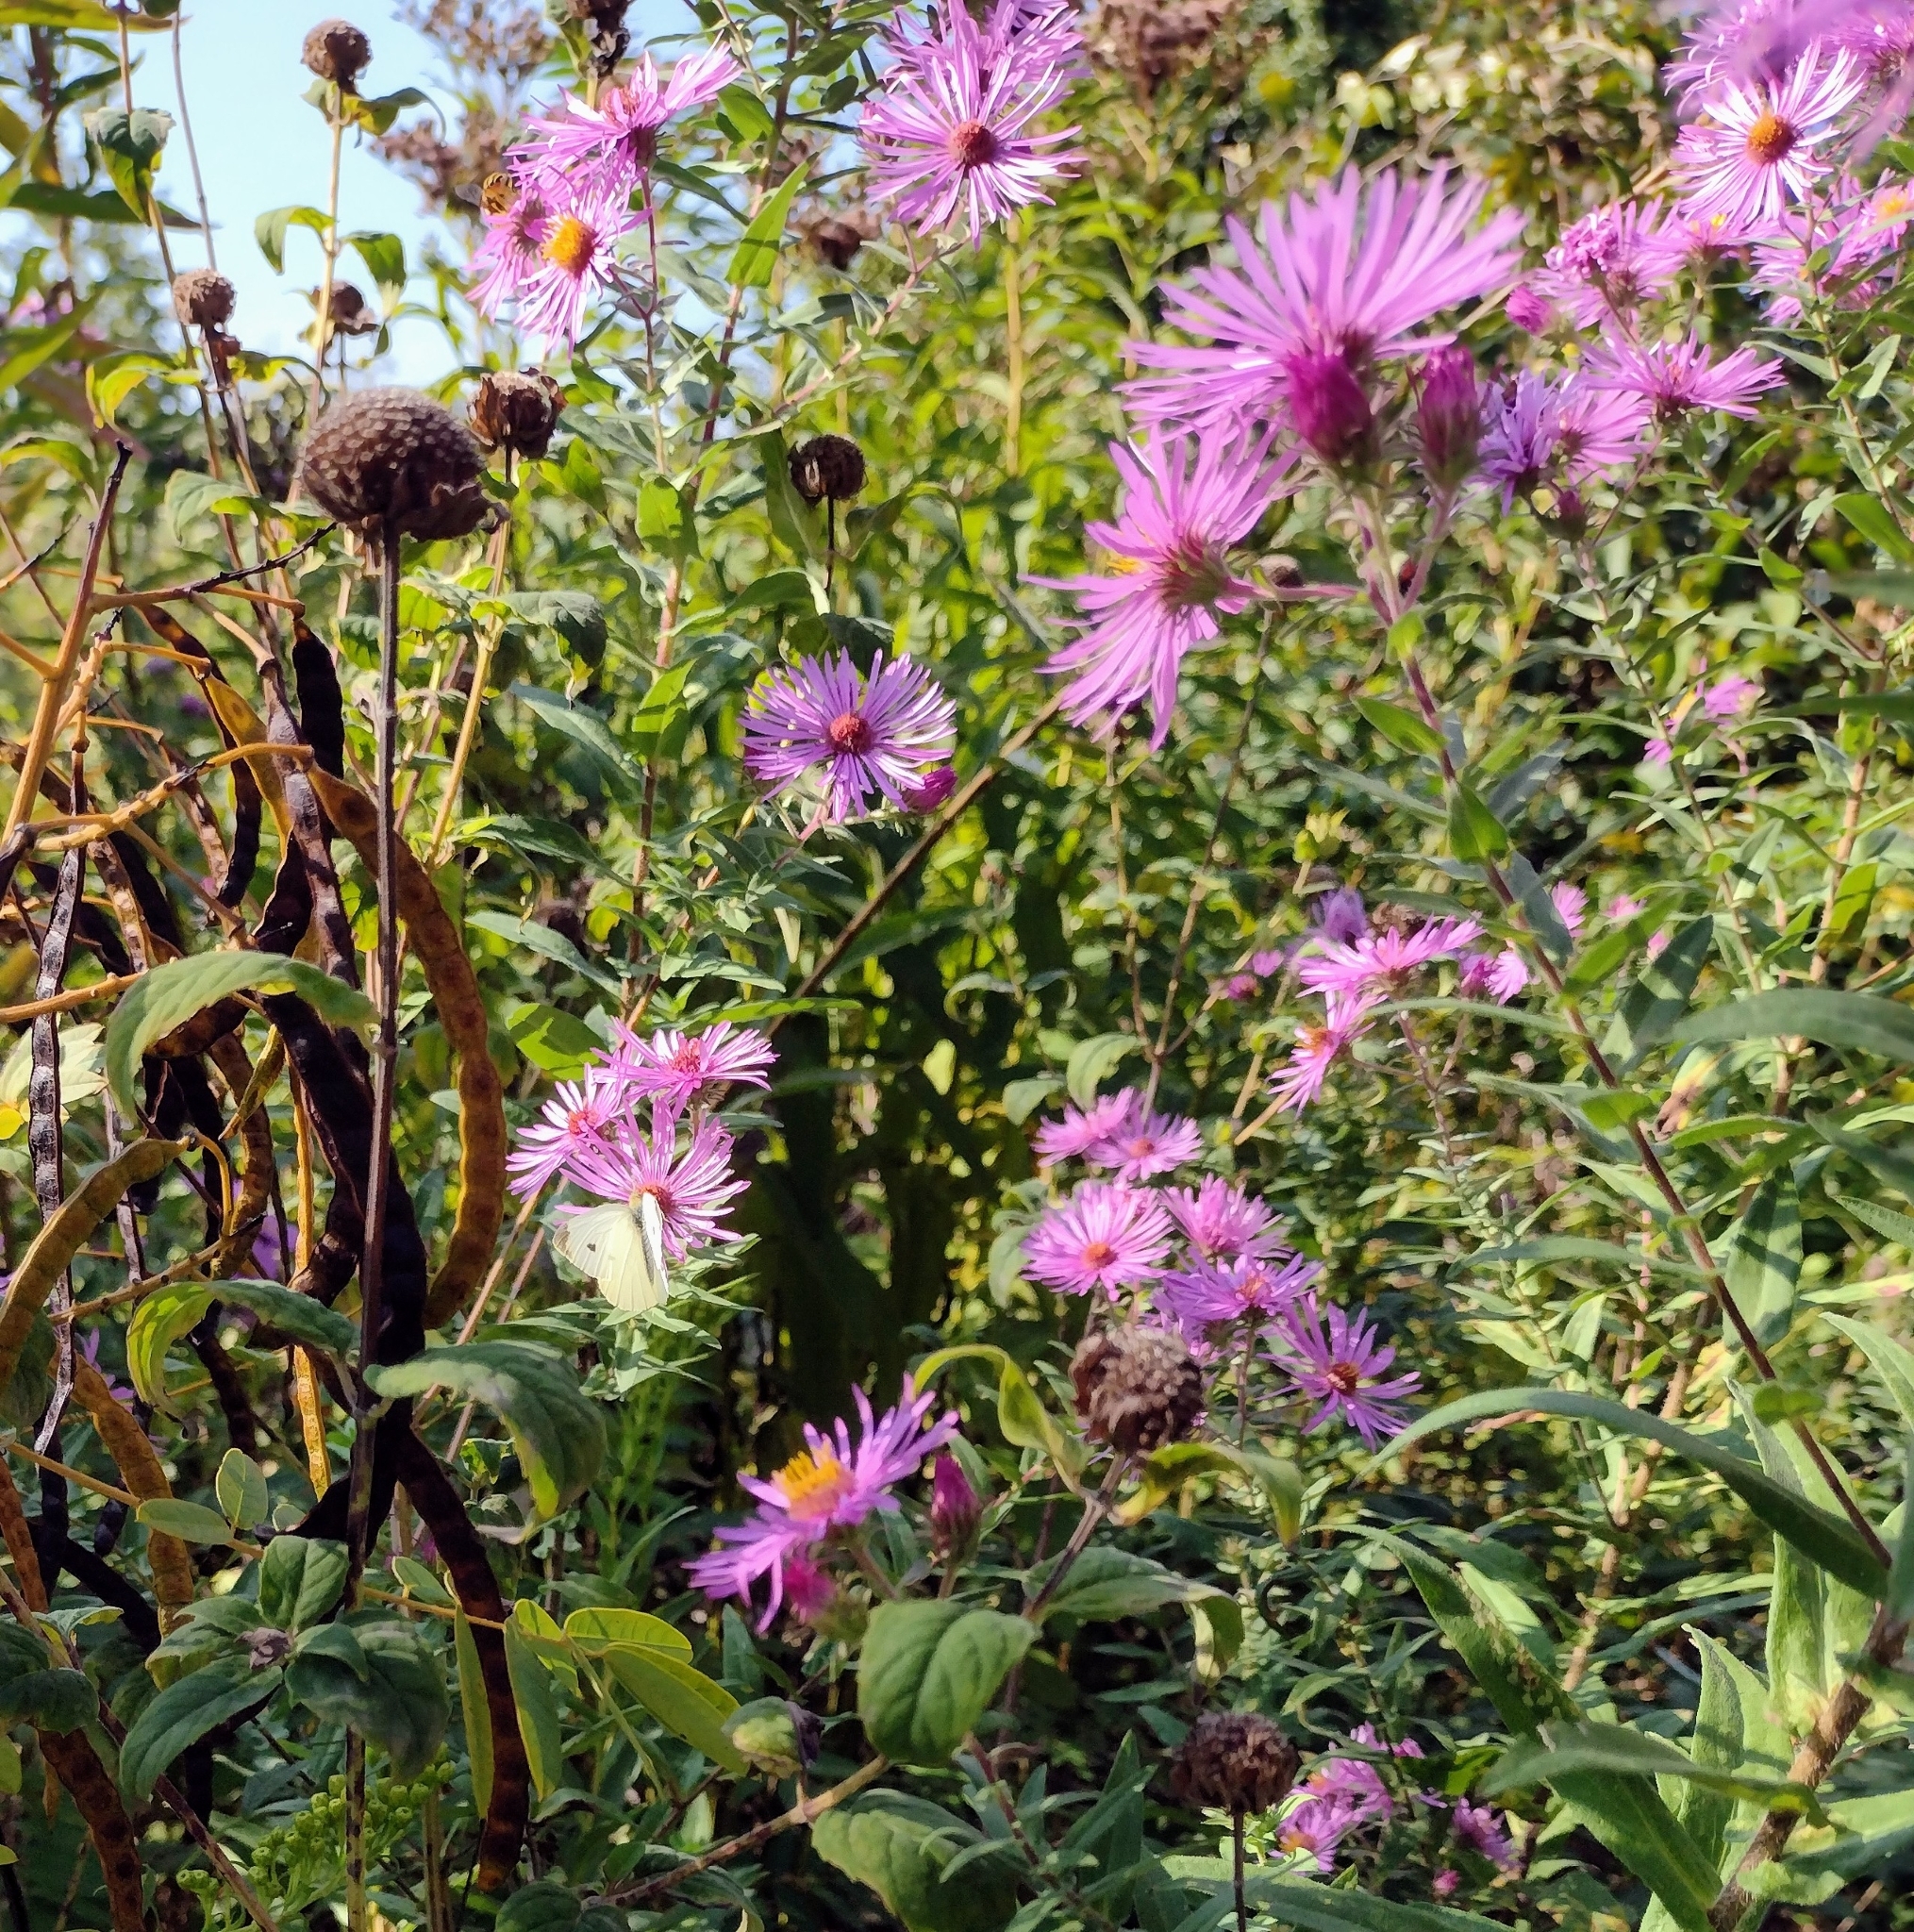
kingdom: Animalia
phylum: Arthropoda
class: Insecta
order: Lepidoptera
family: Pieridae
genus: Pieris
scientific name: Pieris rapae
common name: Small white
